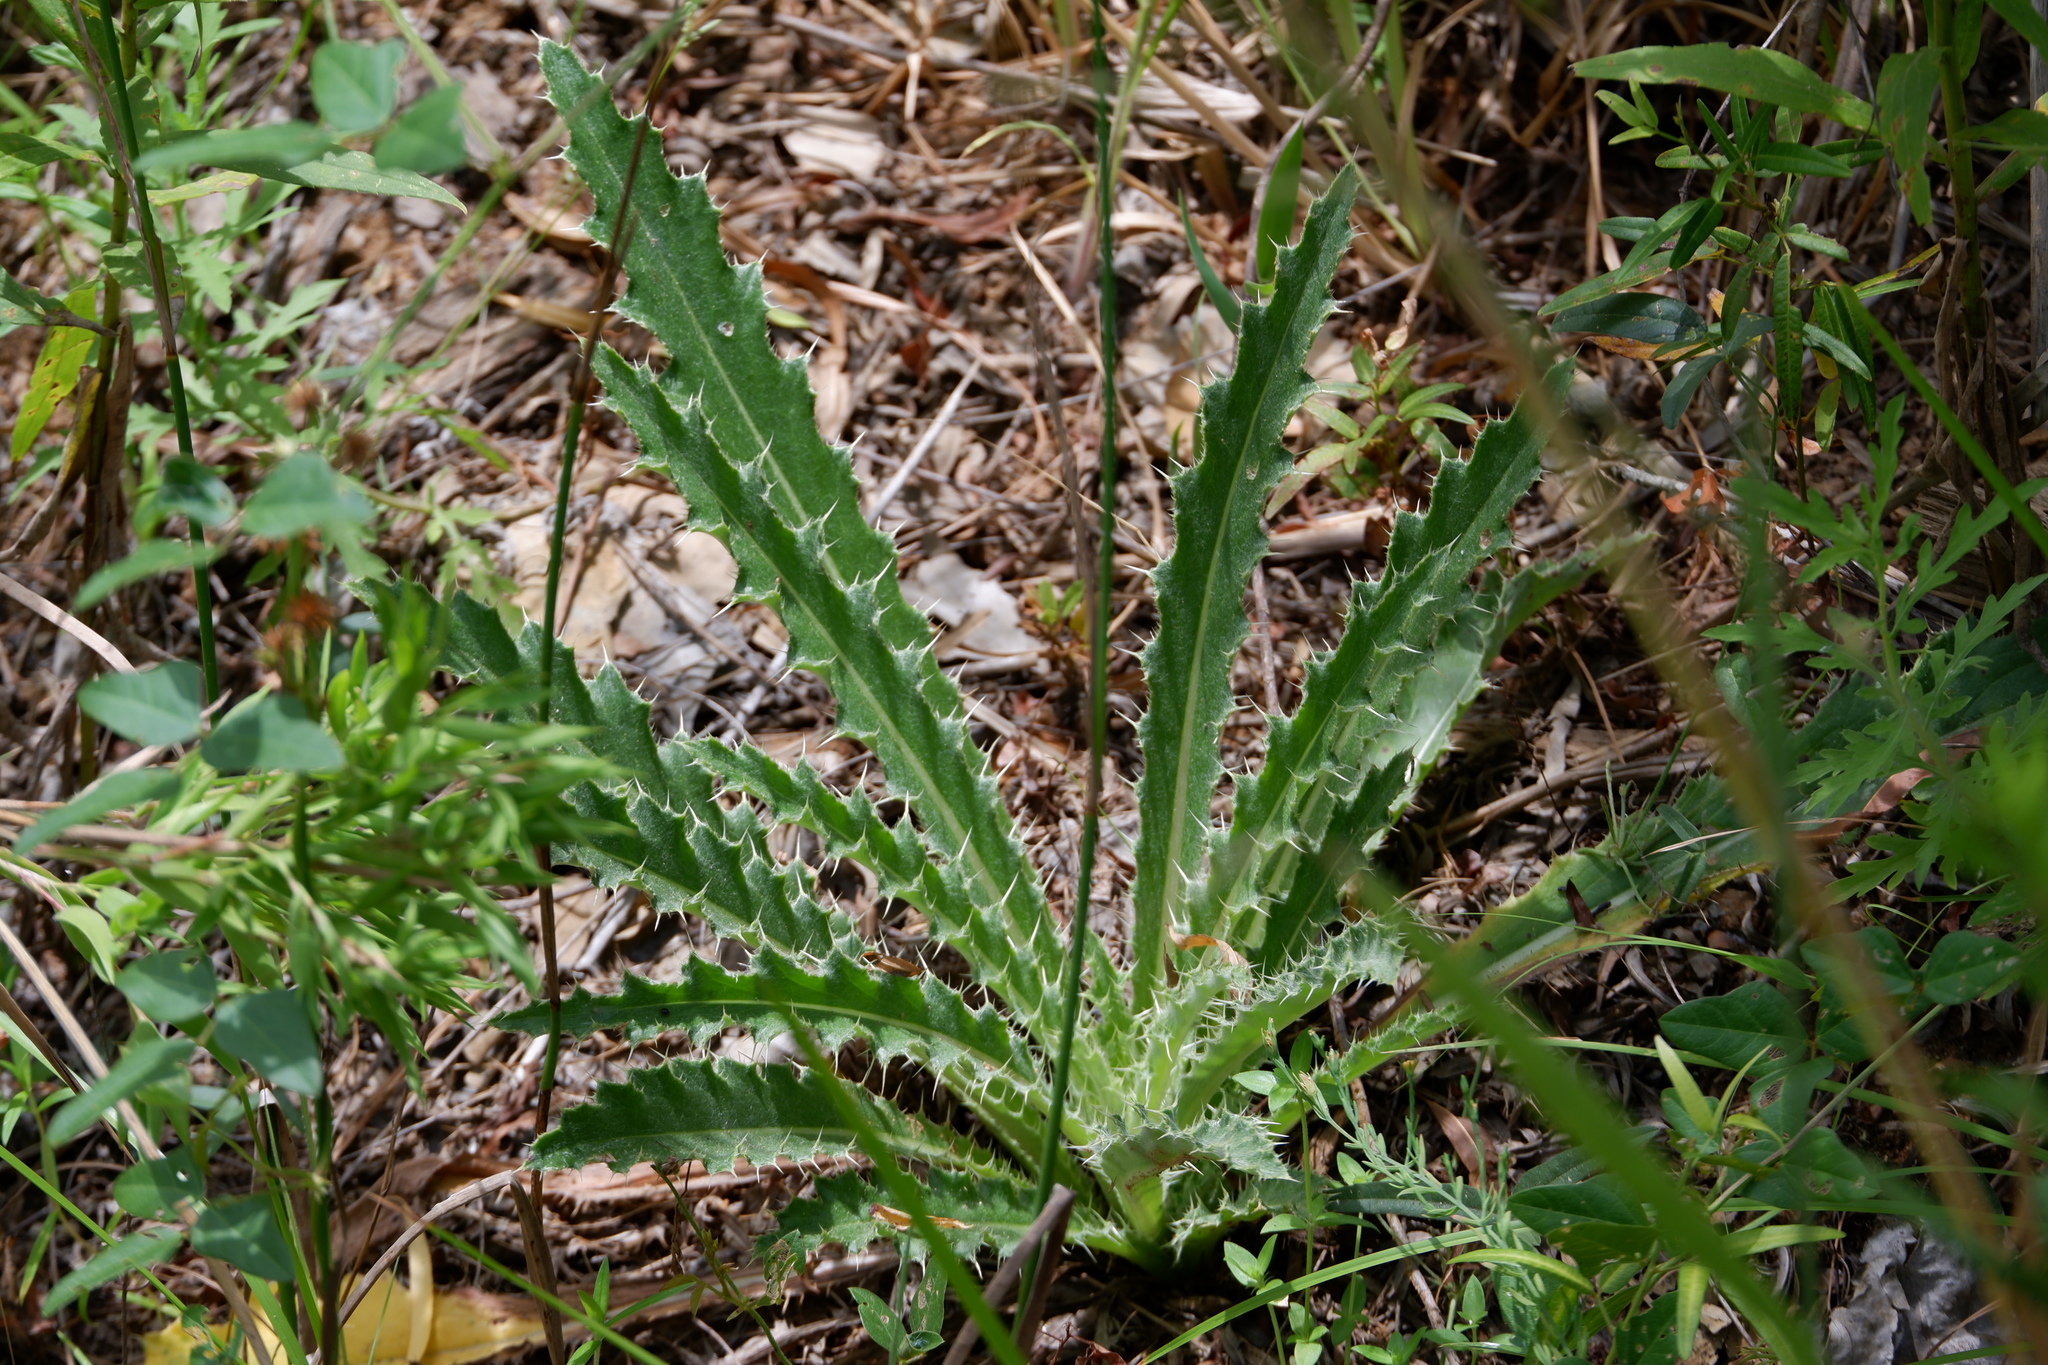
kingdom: Plantae
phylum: Tracheophyta
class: Magnoliopsida
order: Asterales
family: Asteraceae
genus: Cirsium
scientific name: Cirsium horridulum
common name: Bristly thistle
